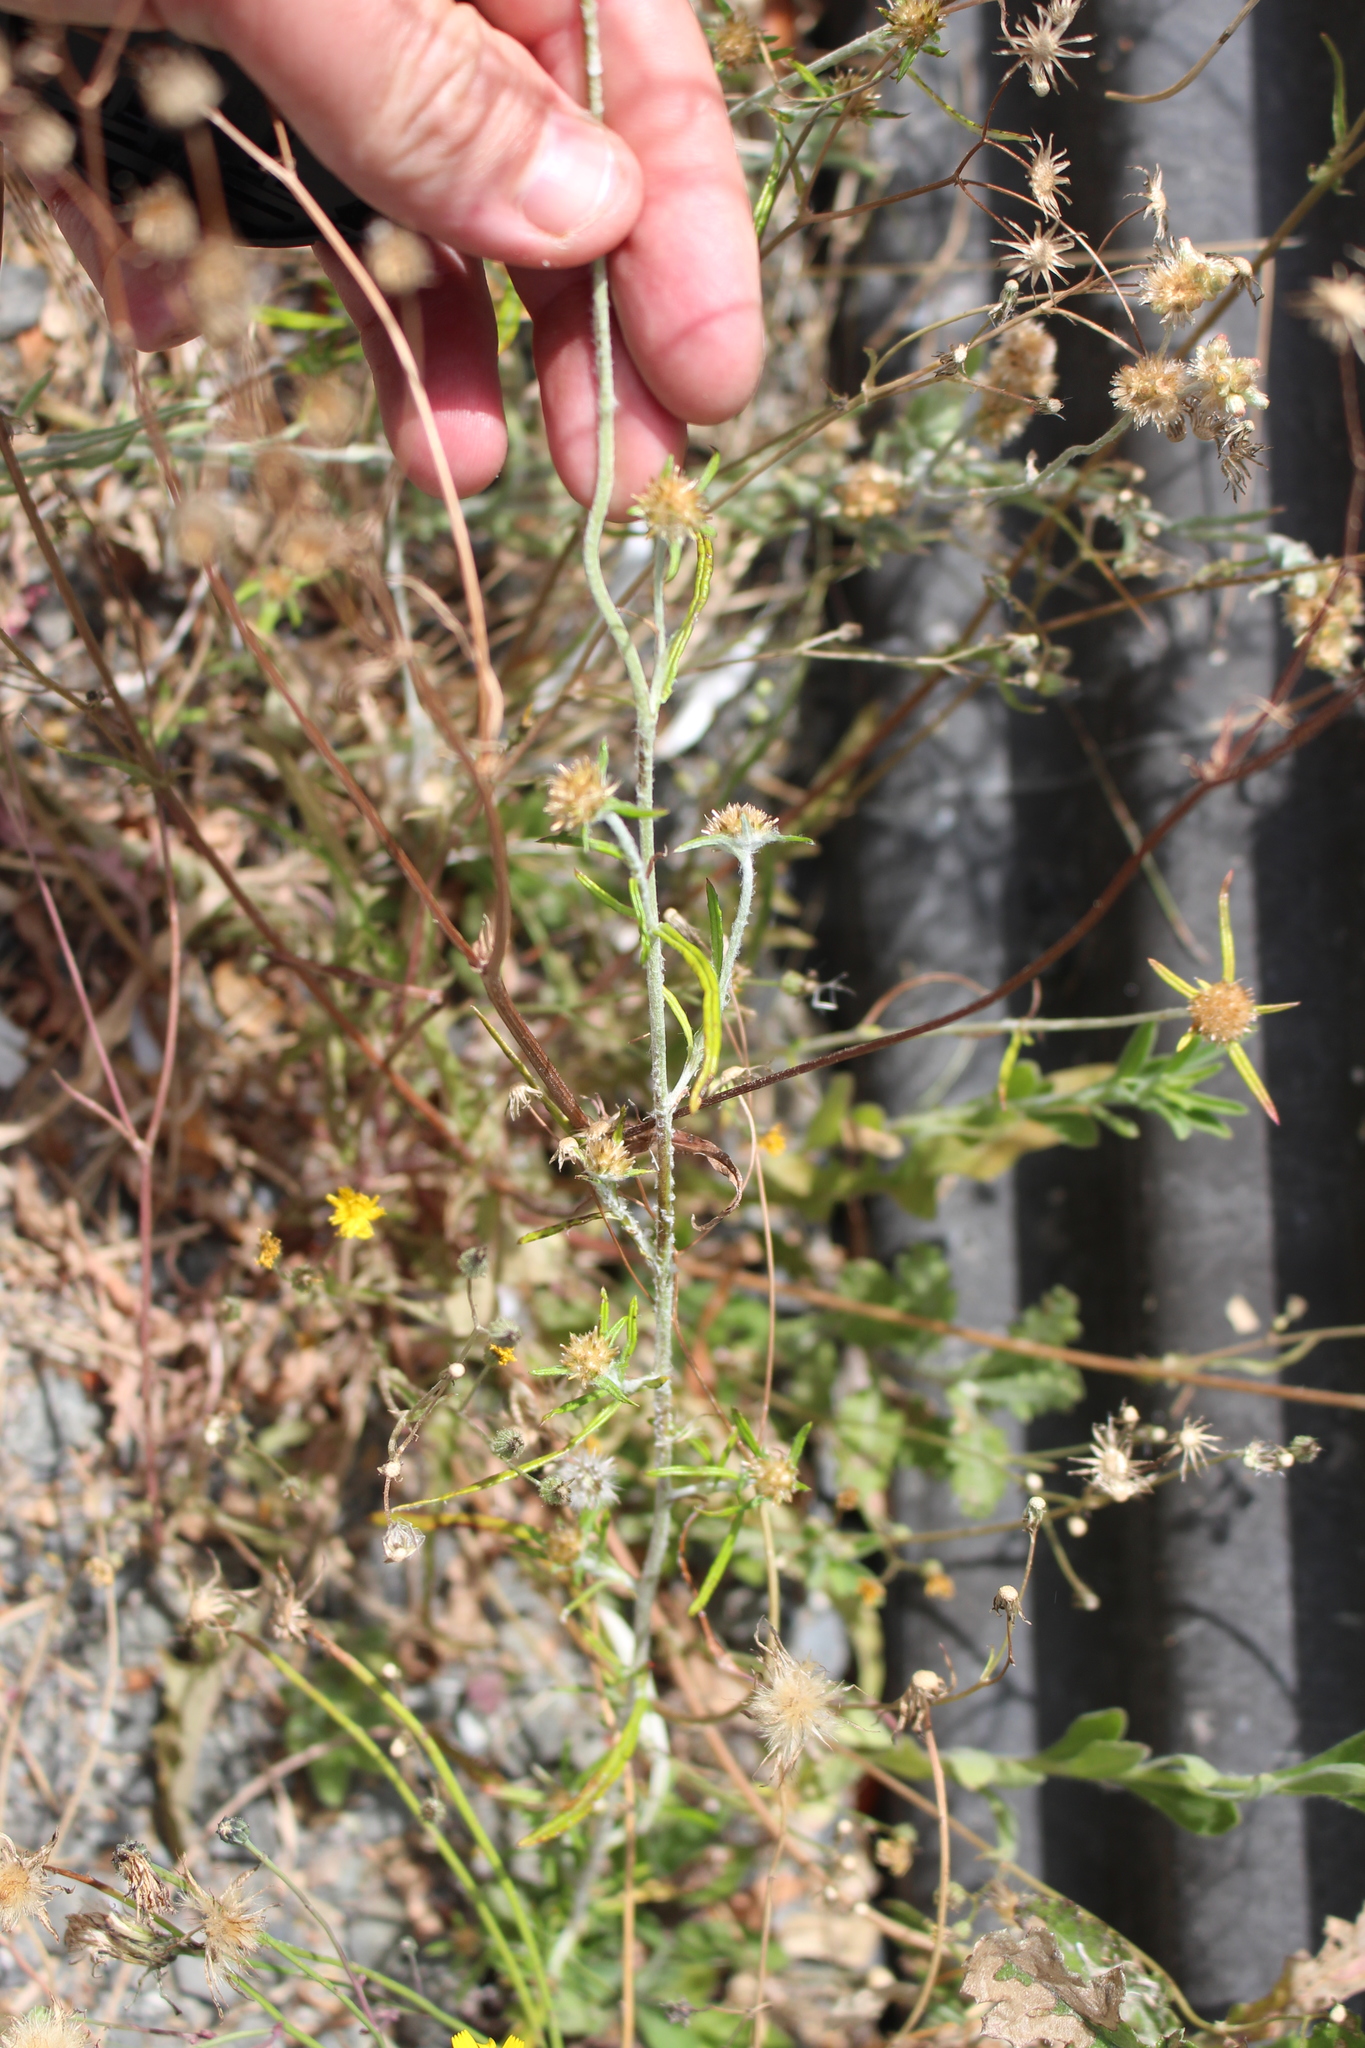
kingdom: Plantae
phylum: Tracheophyta
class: Magnoliopsida
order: Asterales
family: Asteraceae
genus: Euchiton
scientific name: Euchiton sphaericus
